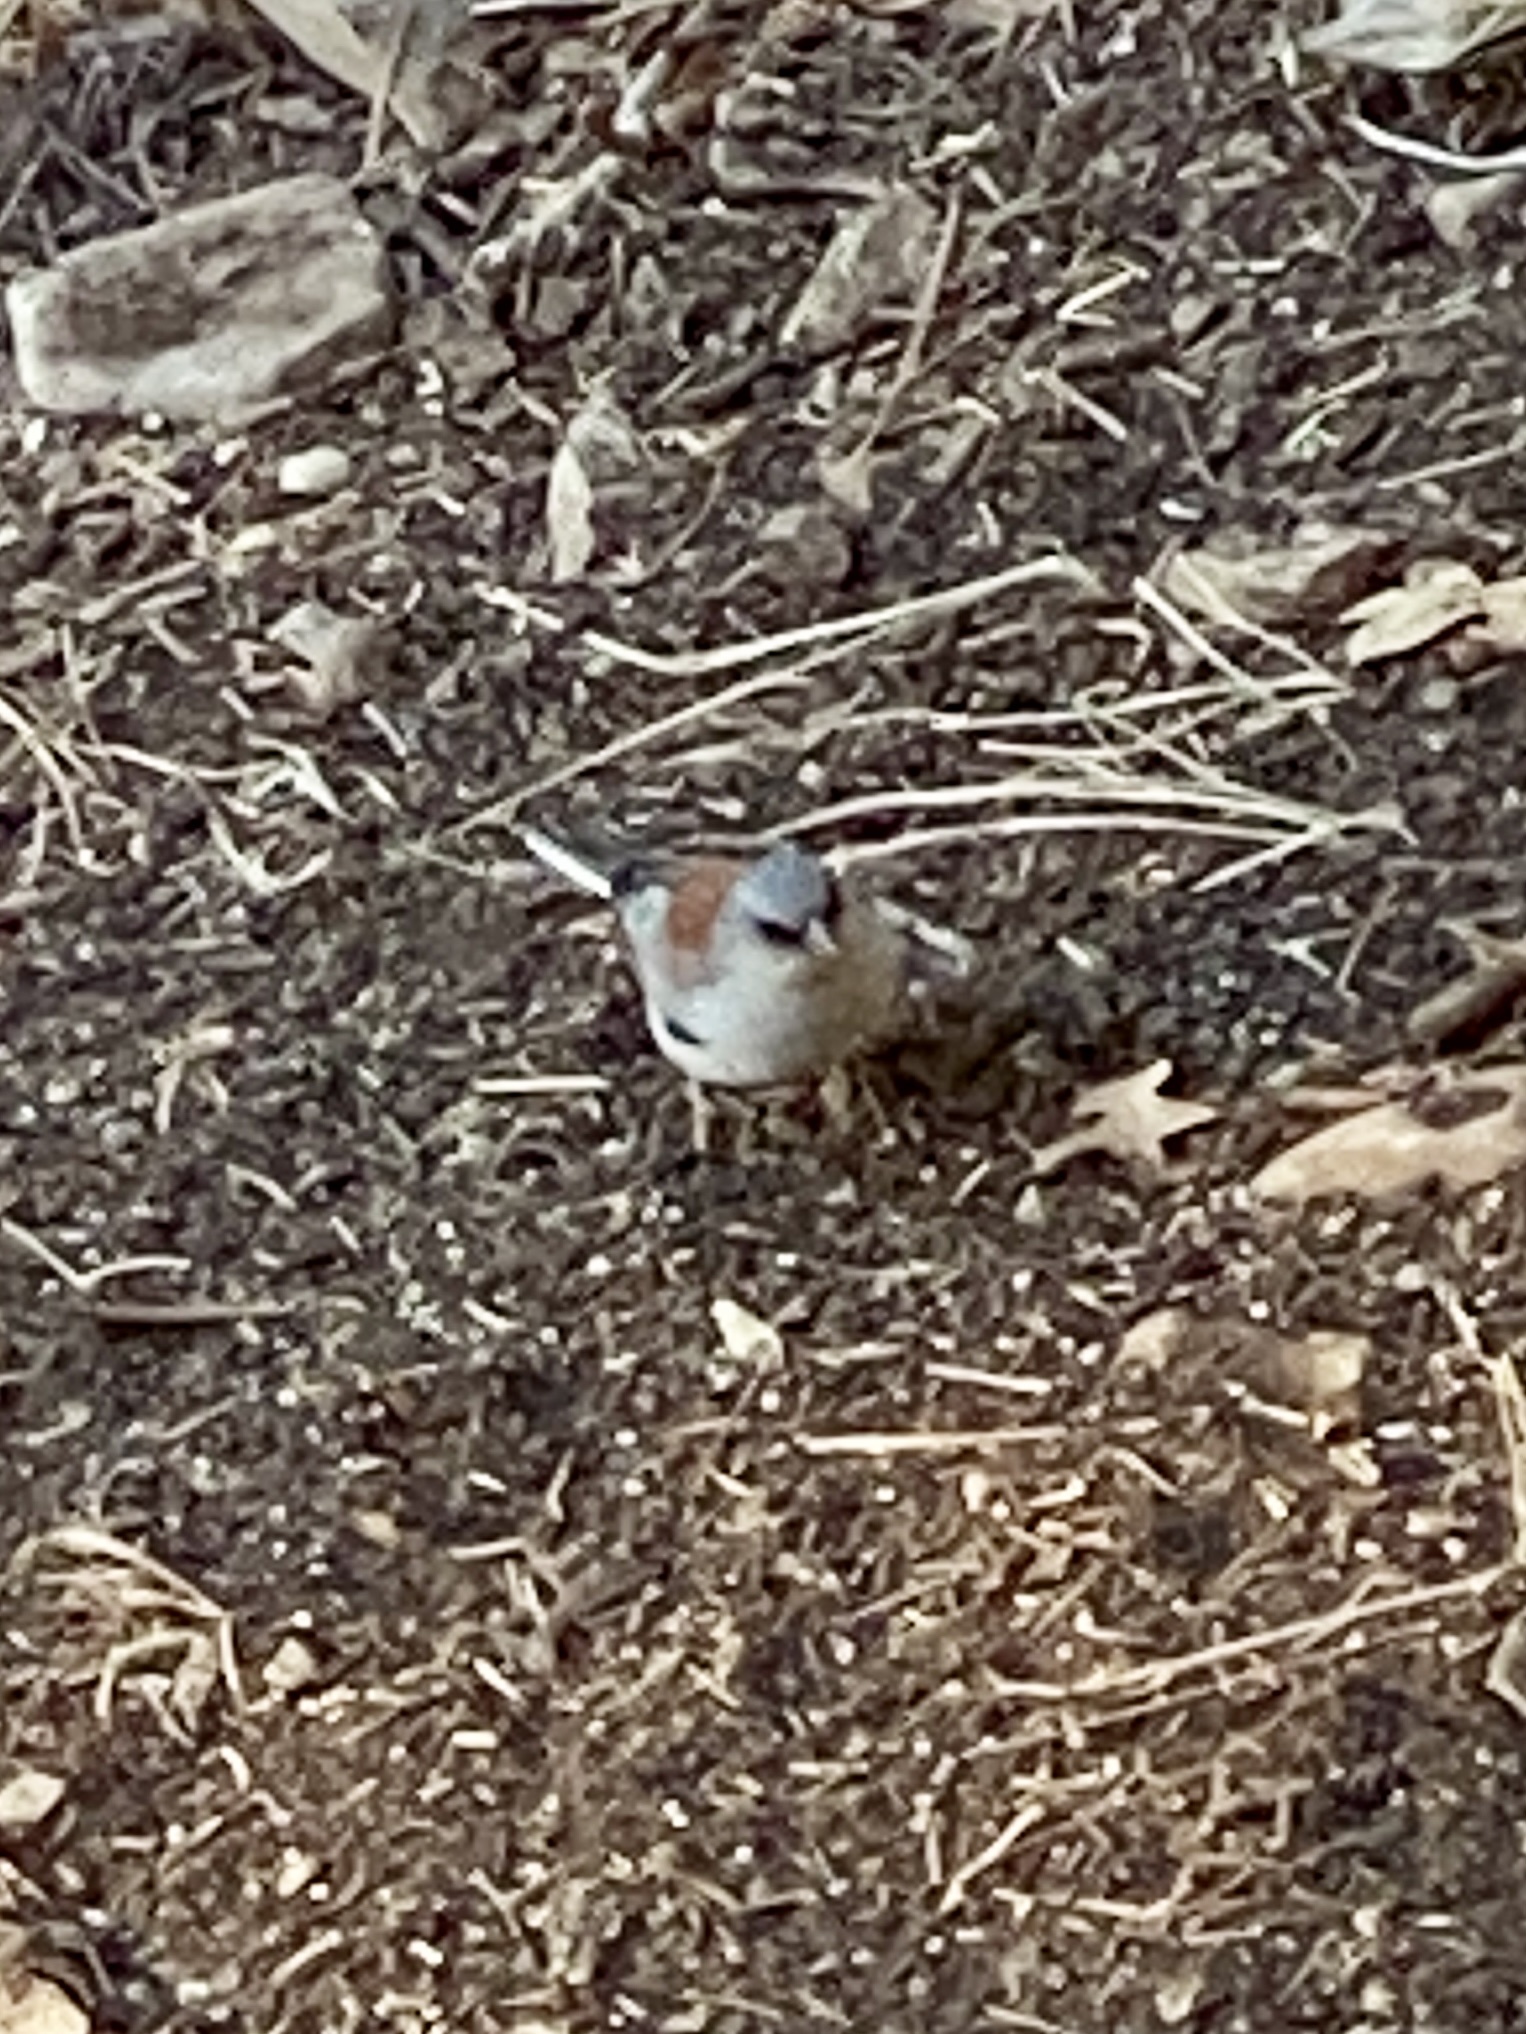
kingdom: Animalia
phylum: Chordata
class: Aves
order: Passeriformes
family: Passerellidae
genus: Junco
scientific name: Junco hyemalis
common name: Dark-eyed junco
